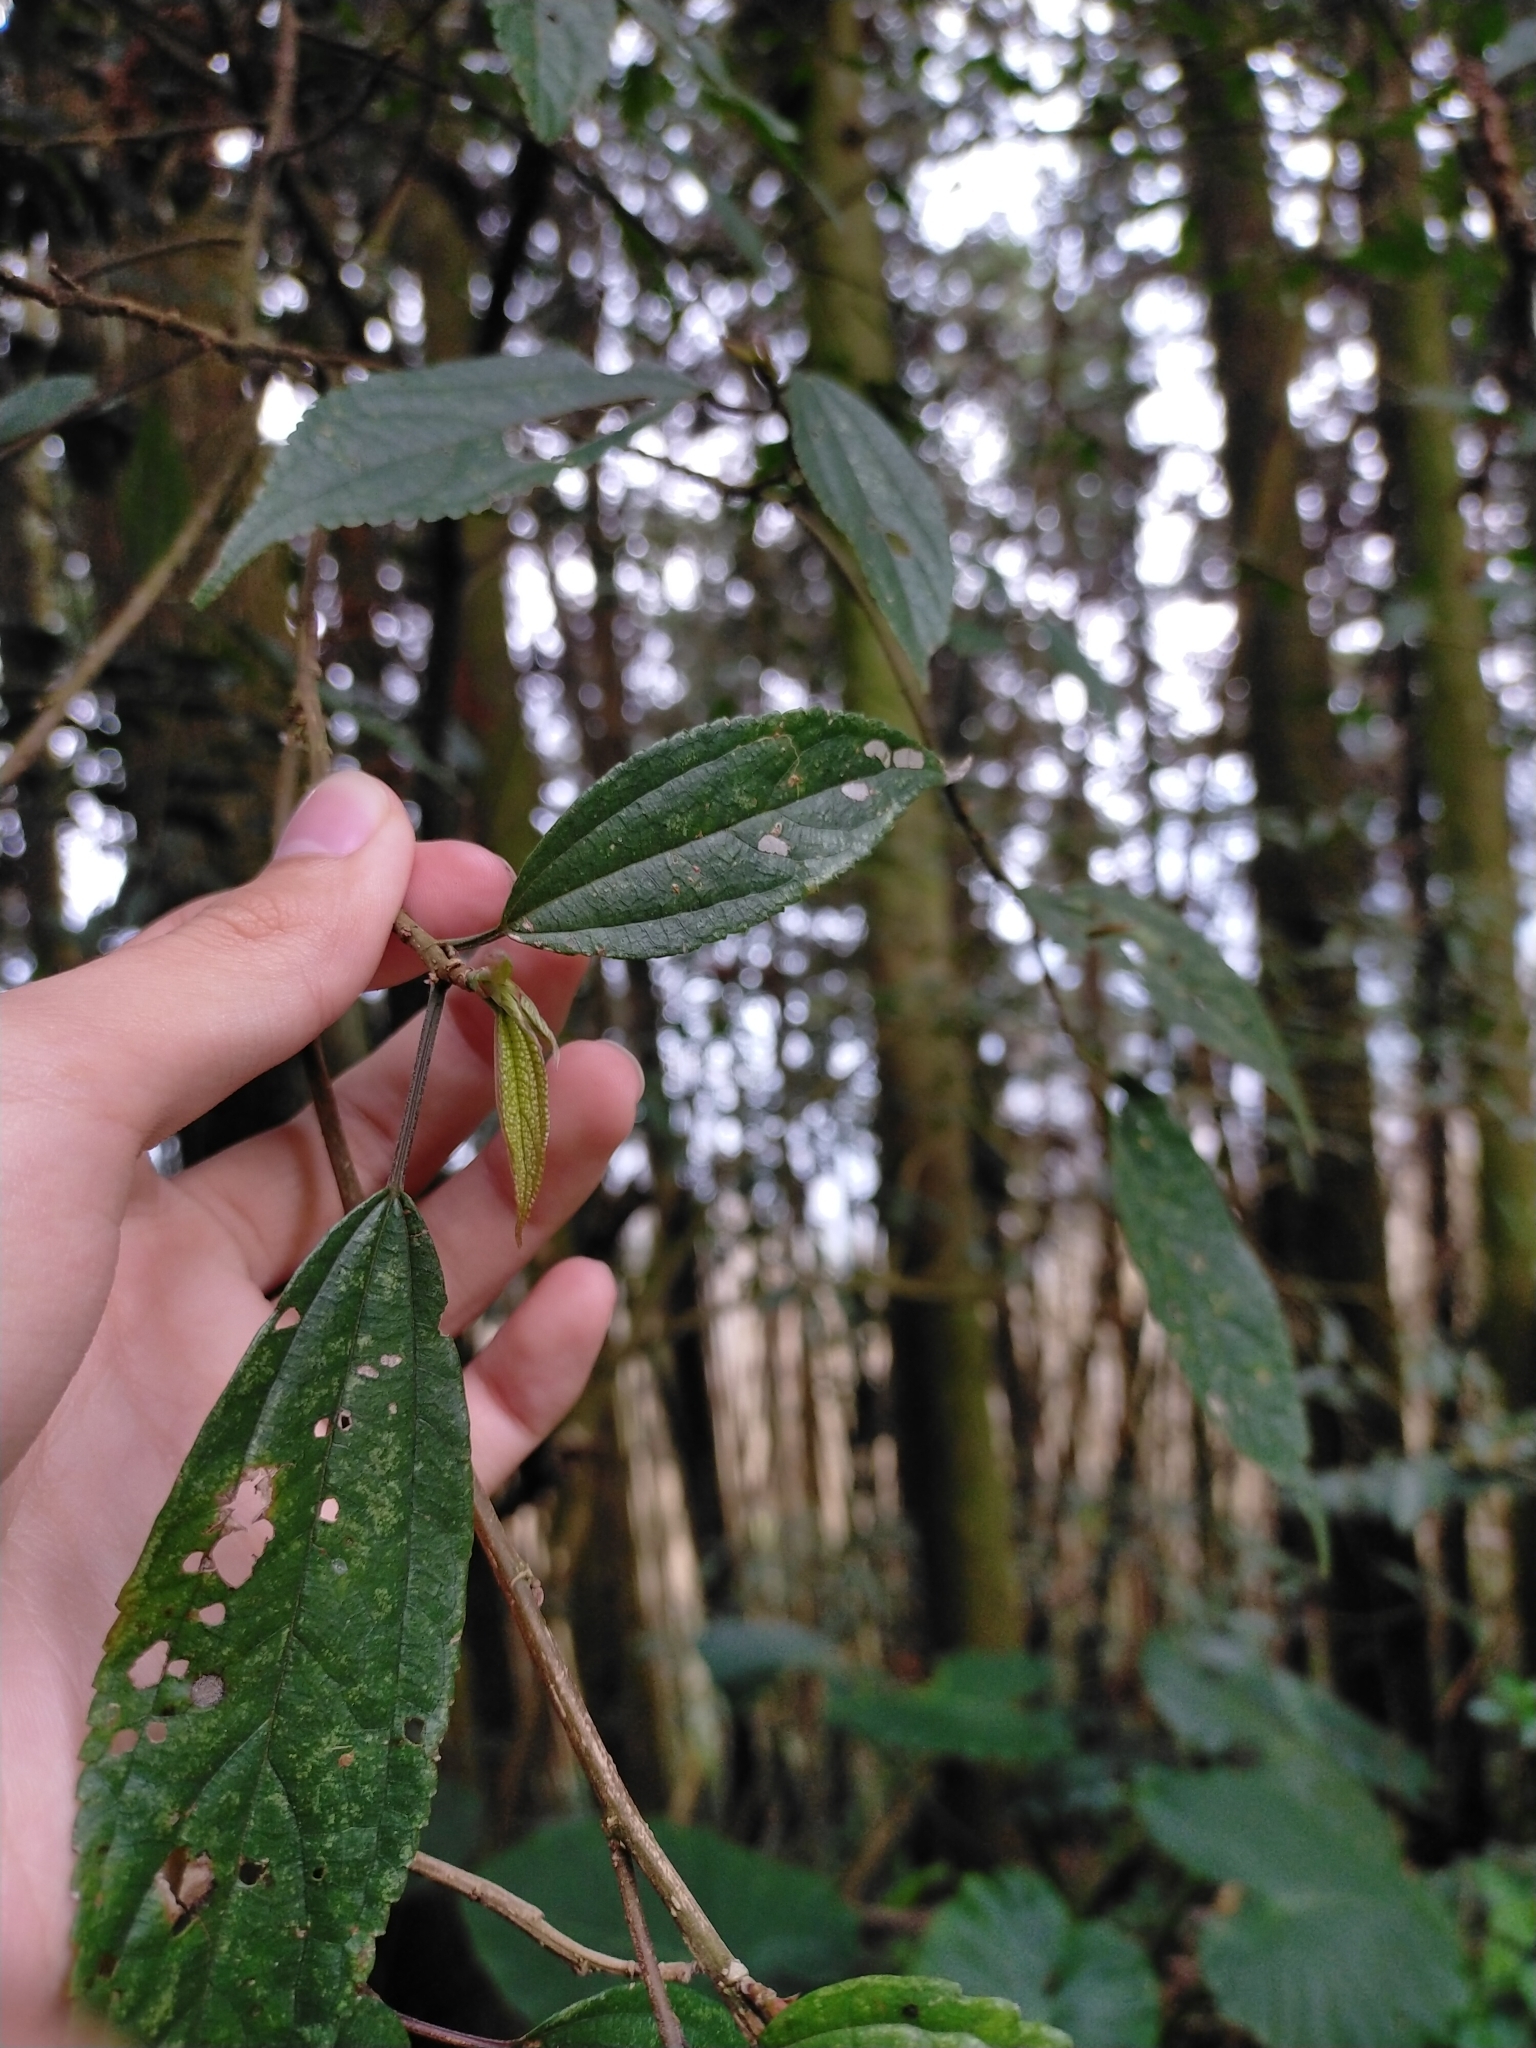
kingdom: Plantae
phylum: Tracheophyta
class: Magnoliopsida
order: Rosales
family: Urticaceae
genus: Oreocnide
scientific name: Oreocnide pedunculata
